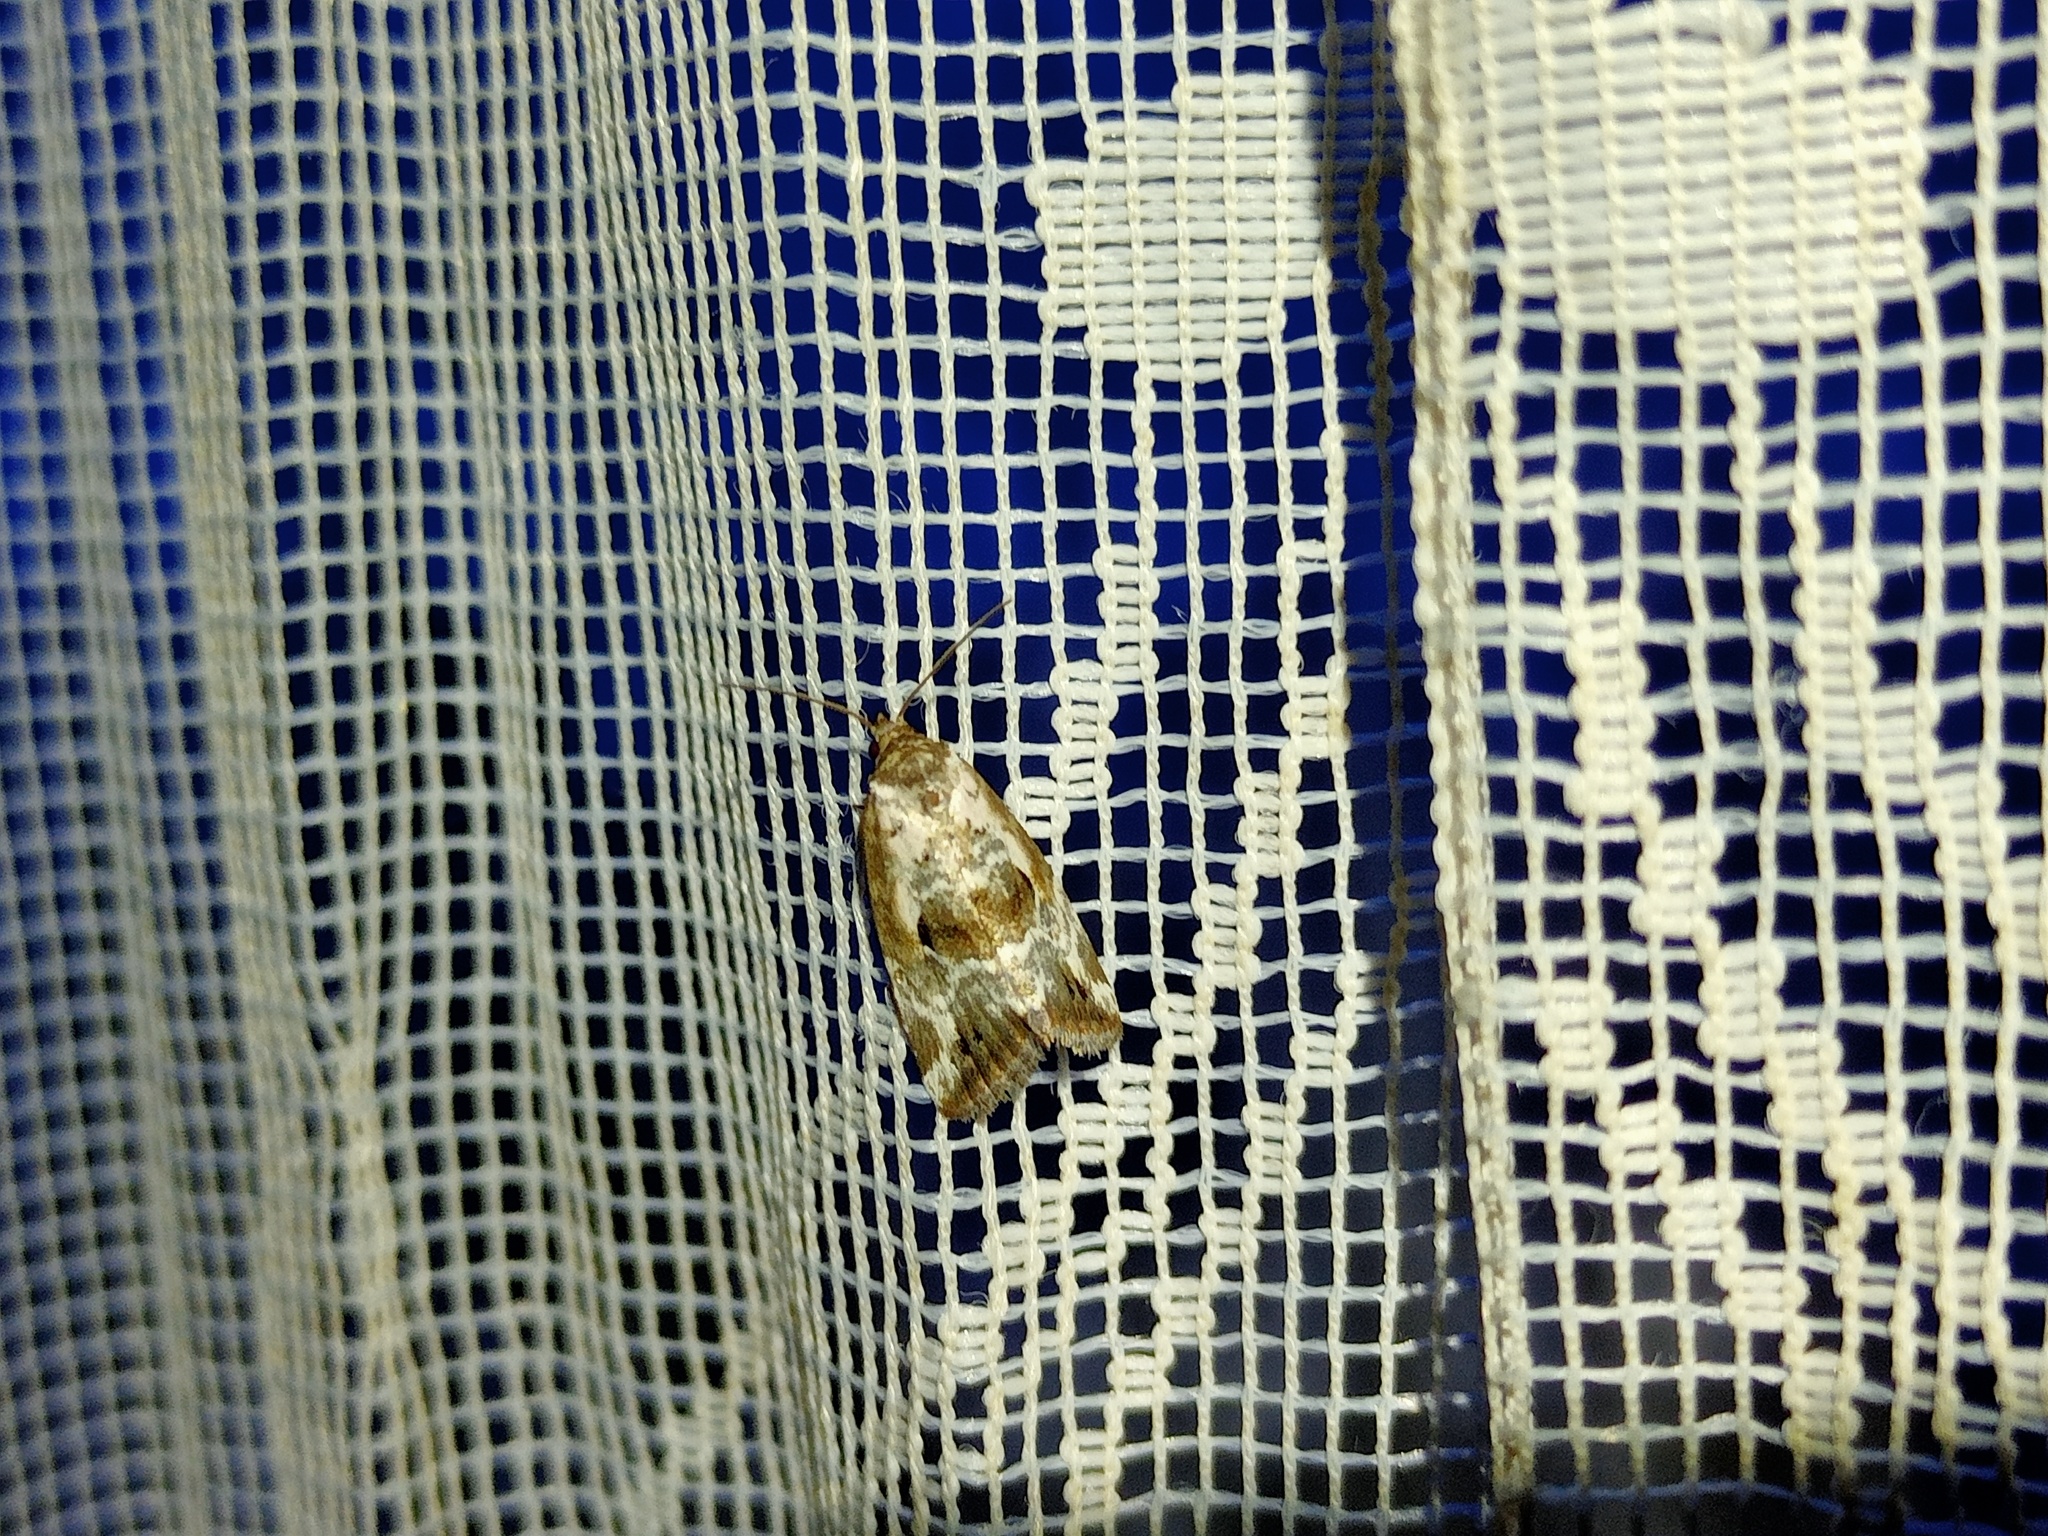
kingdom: Animalia
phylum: Arthropoda
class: Insecta
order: Lepidoptera
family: Noctuidae
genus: Elaphria
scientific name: Elaphria venustula
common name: Rosy marbled
